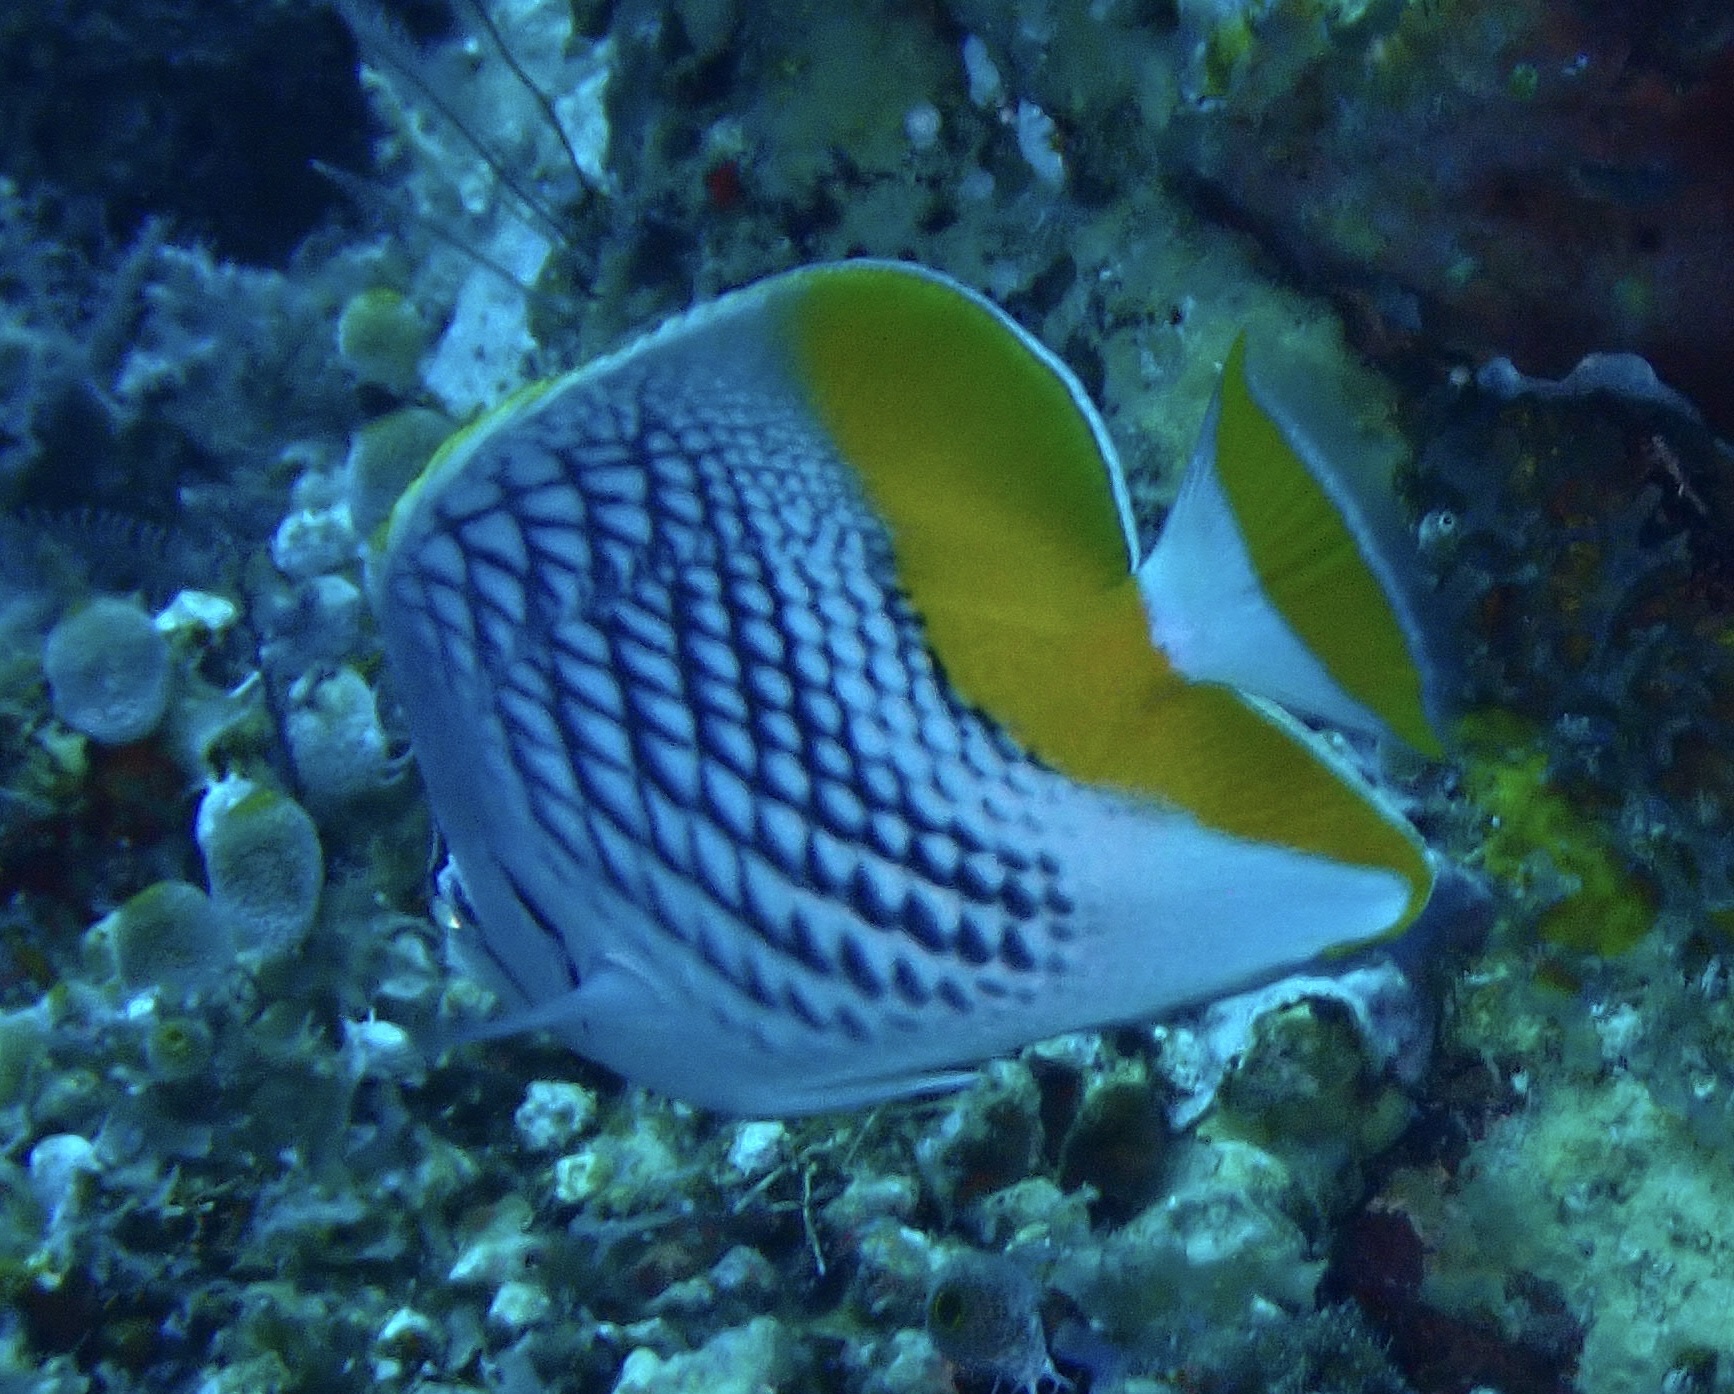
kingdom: Animalia
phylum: Chordata
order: Perciformes
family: Chaetodontidae
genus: Chaetodon
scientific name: Chaetodon xanthurus
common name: Philippine chevron butterflyfish
